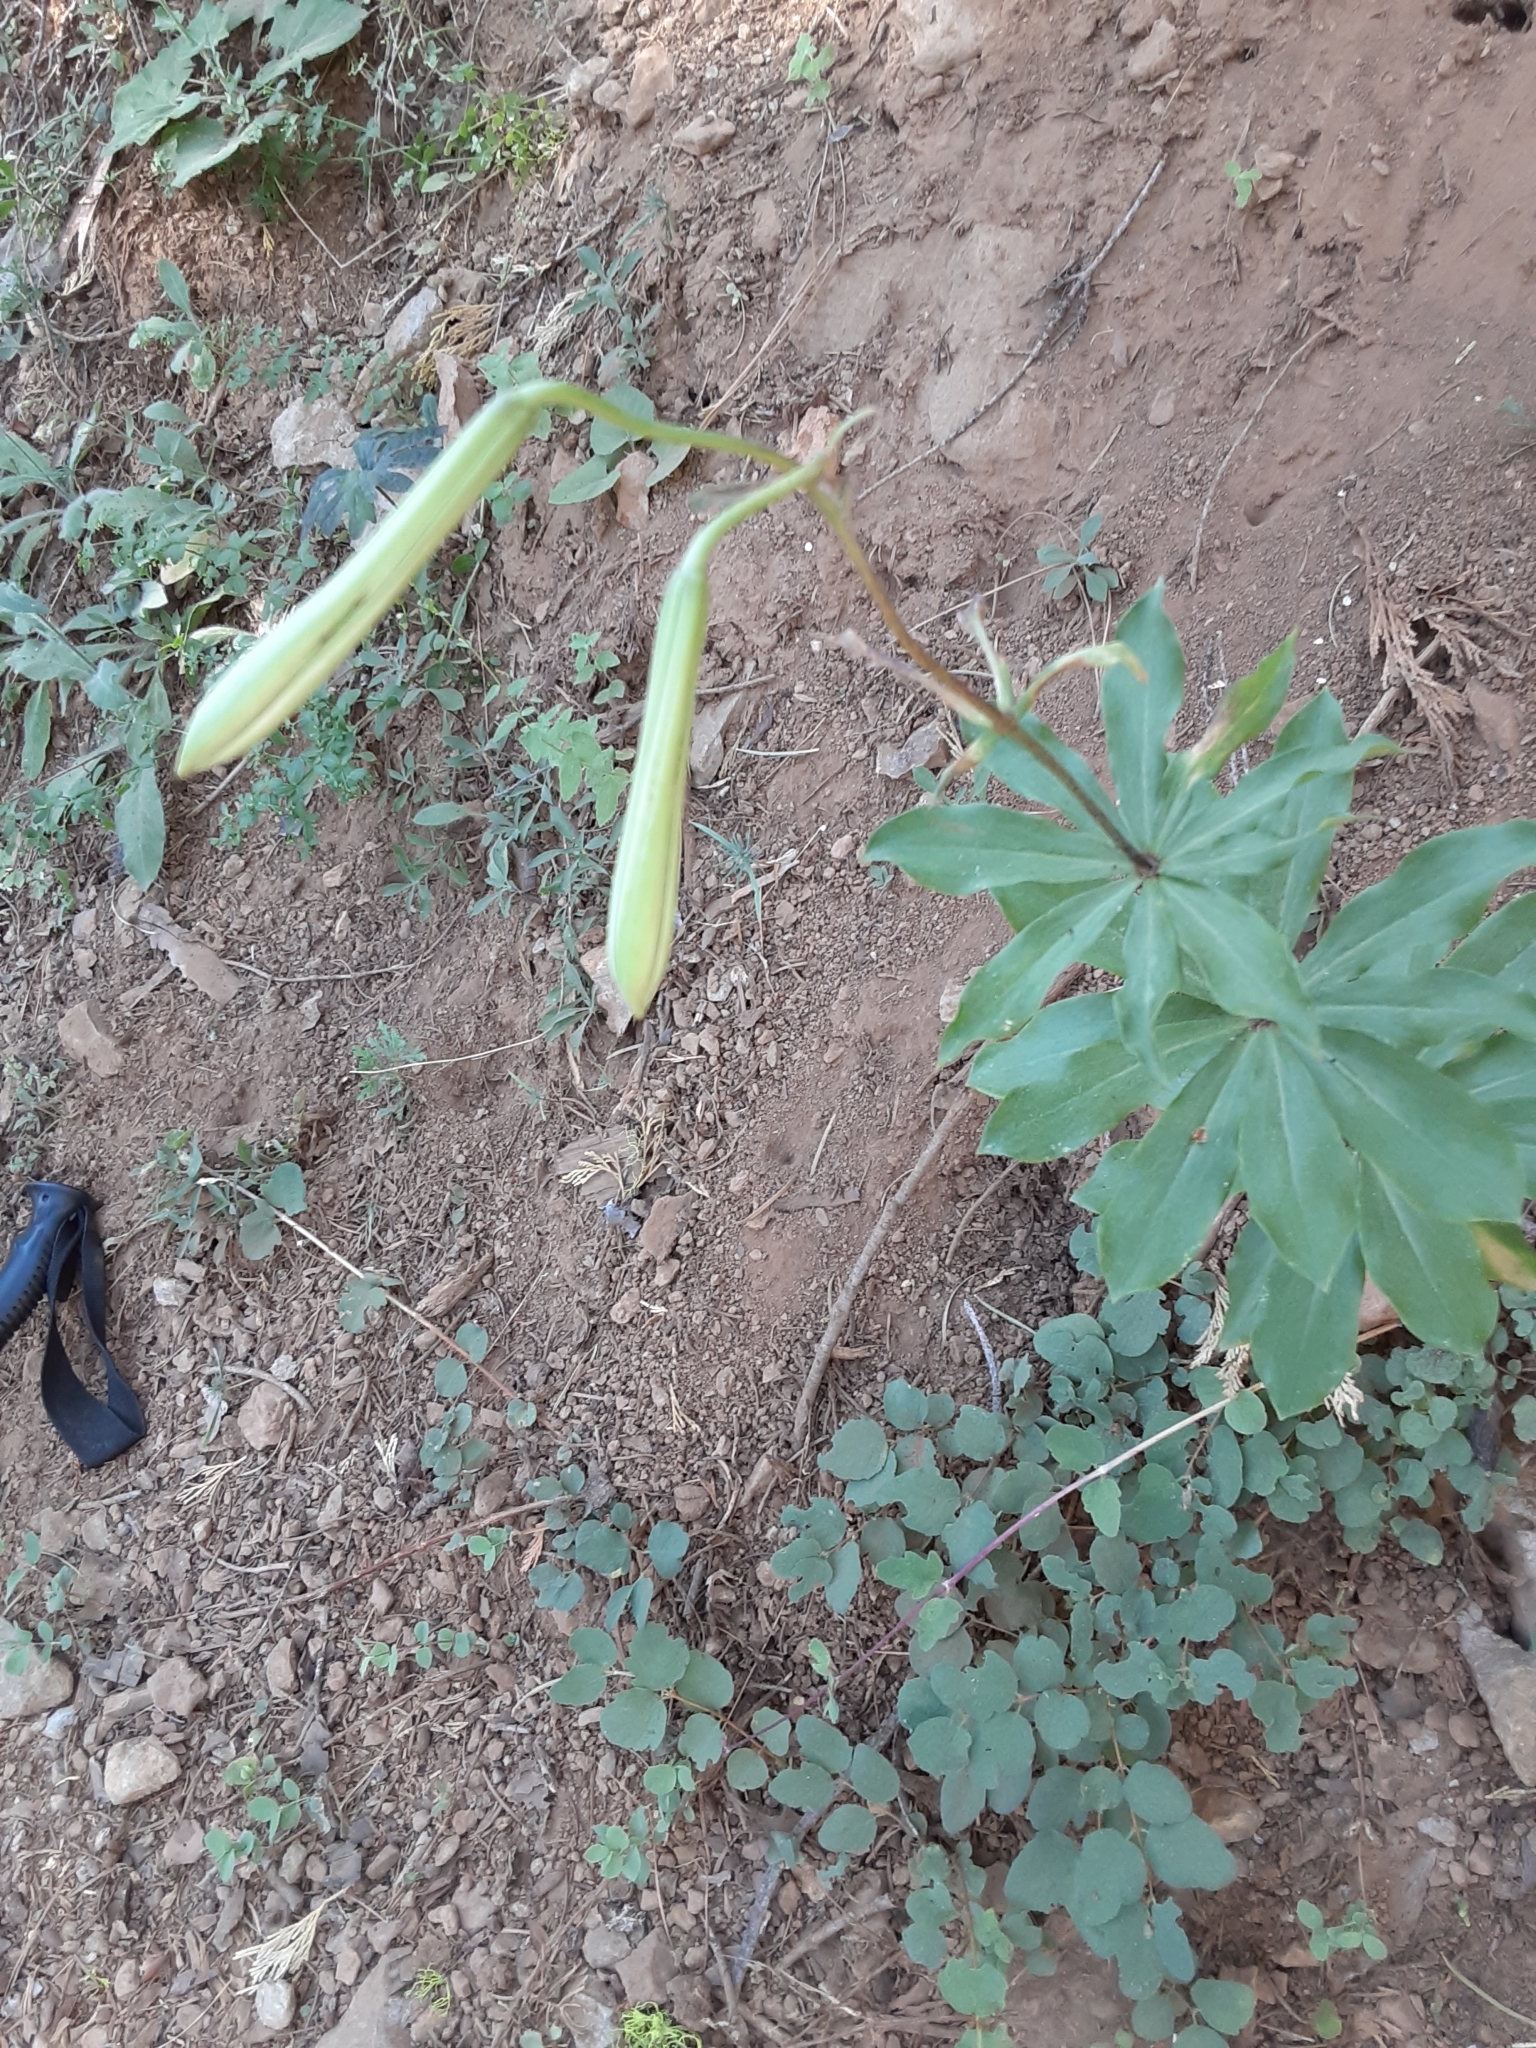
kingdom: Plantae
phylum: Tracheophyta
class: Liliopsida
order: Liliales
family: Liliaceae
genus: Lilium
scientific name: Lilium washingtonianum
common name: Washington lily
